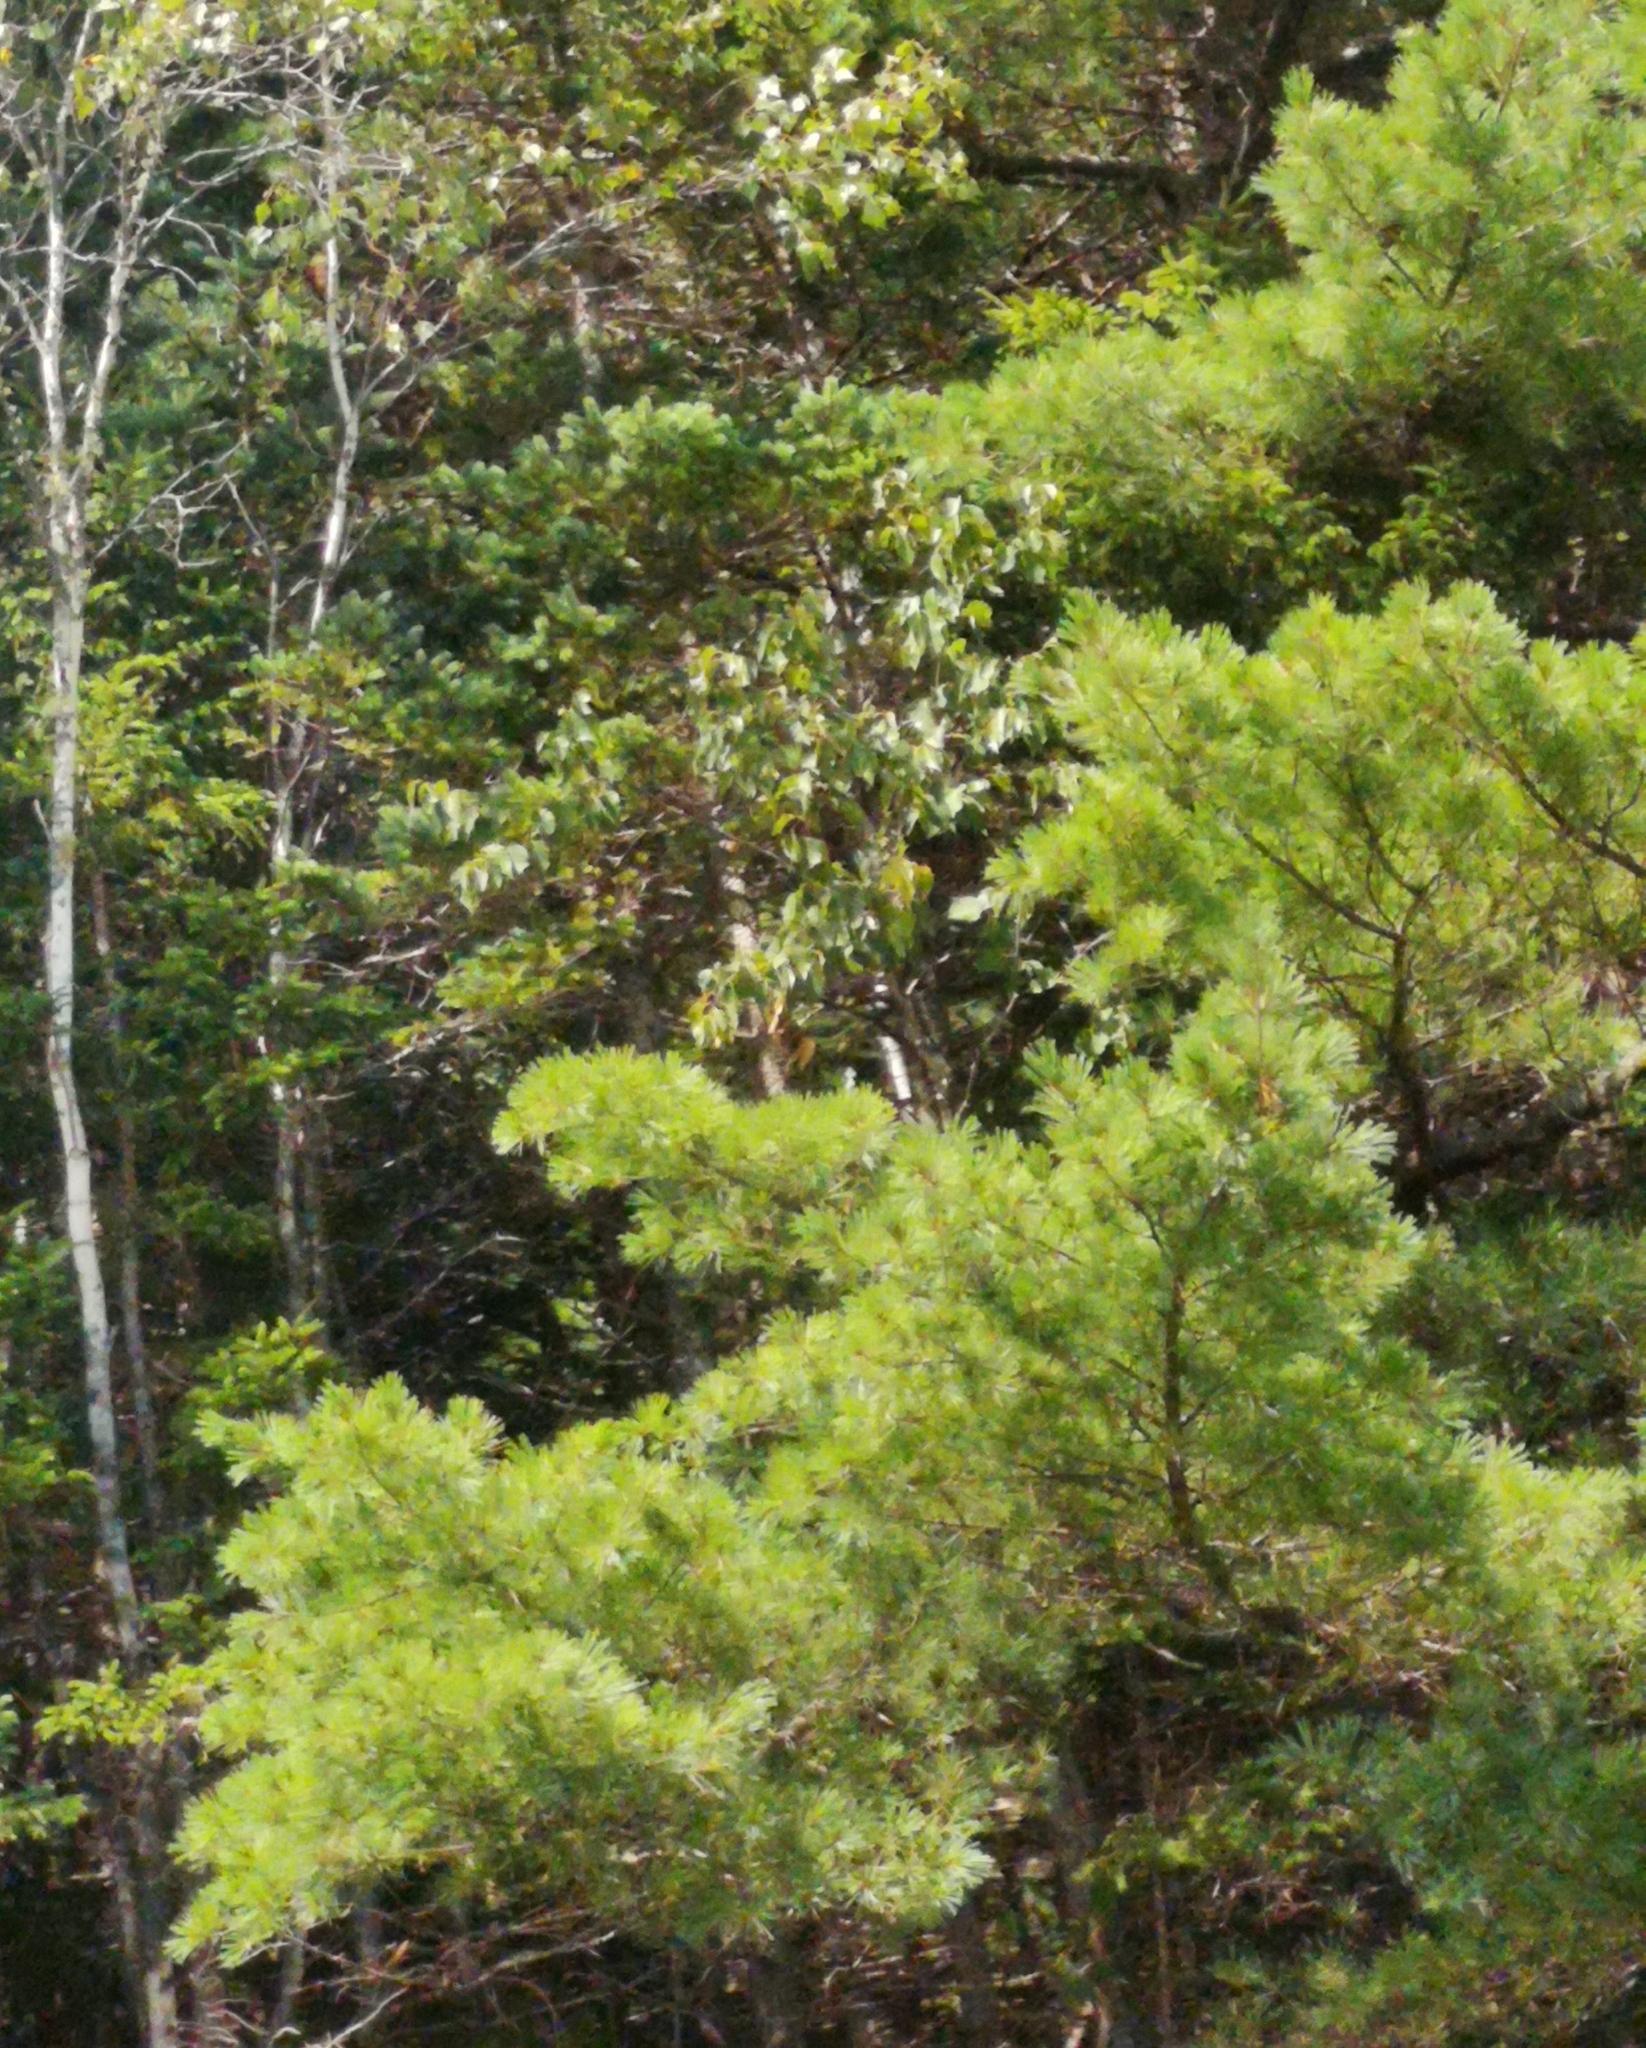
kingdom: Plantae
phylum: Tracheophyta
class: Pinopsida
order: Pinales
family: Pinaceae
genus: Pinus
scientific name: Pinus strobus
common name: Weymouth pine
